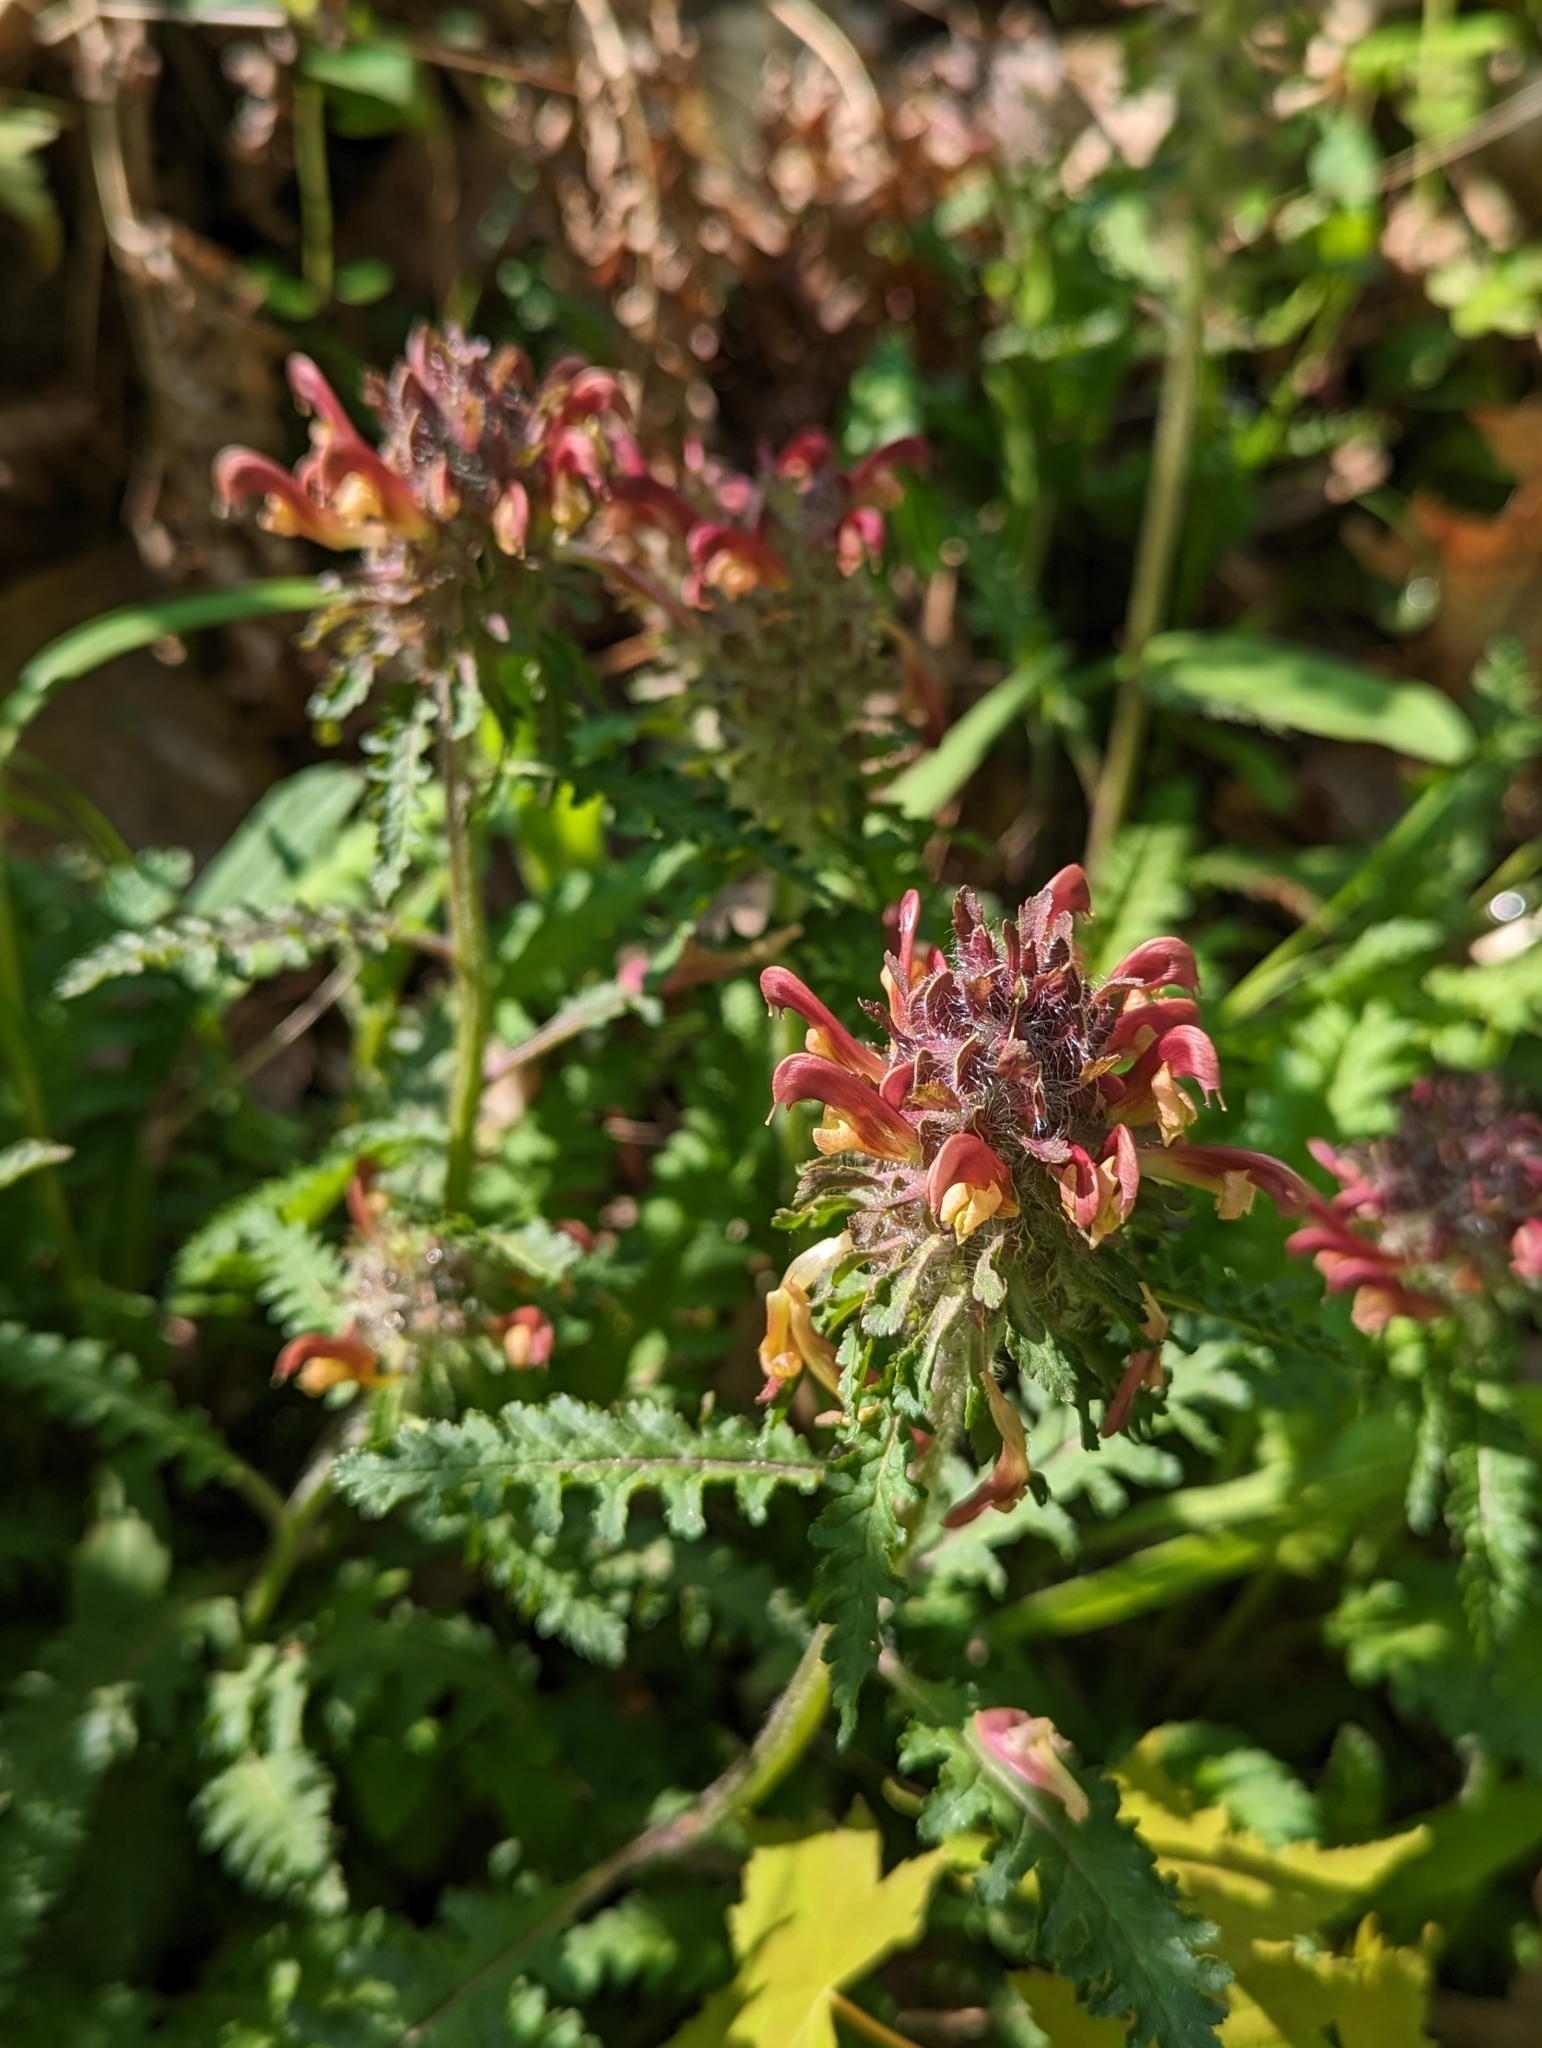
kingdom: Plantae
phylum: Tracheophyta
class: Magnoliopsida
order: Lamiales
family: Orobanchaceae
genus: Pedicularis
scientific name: Pedicularis canadensis
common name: Early lousewort
